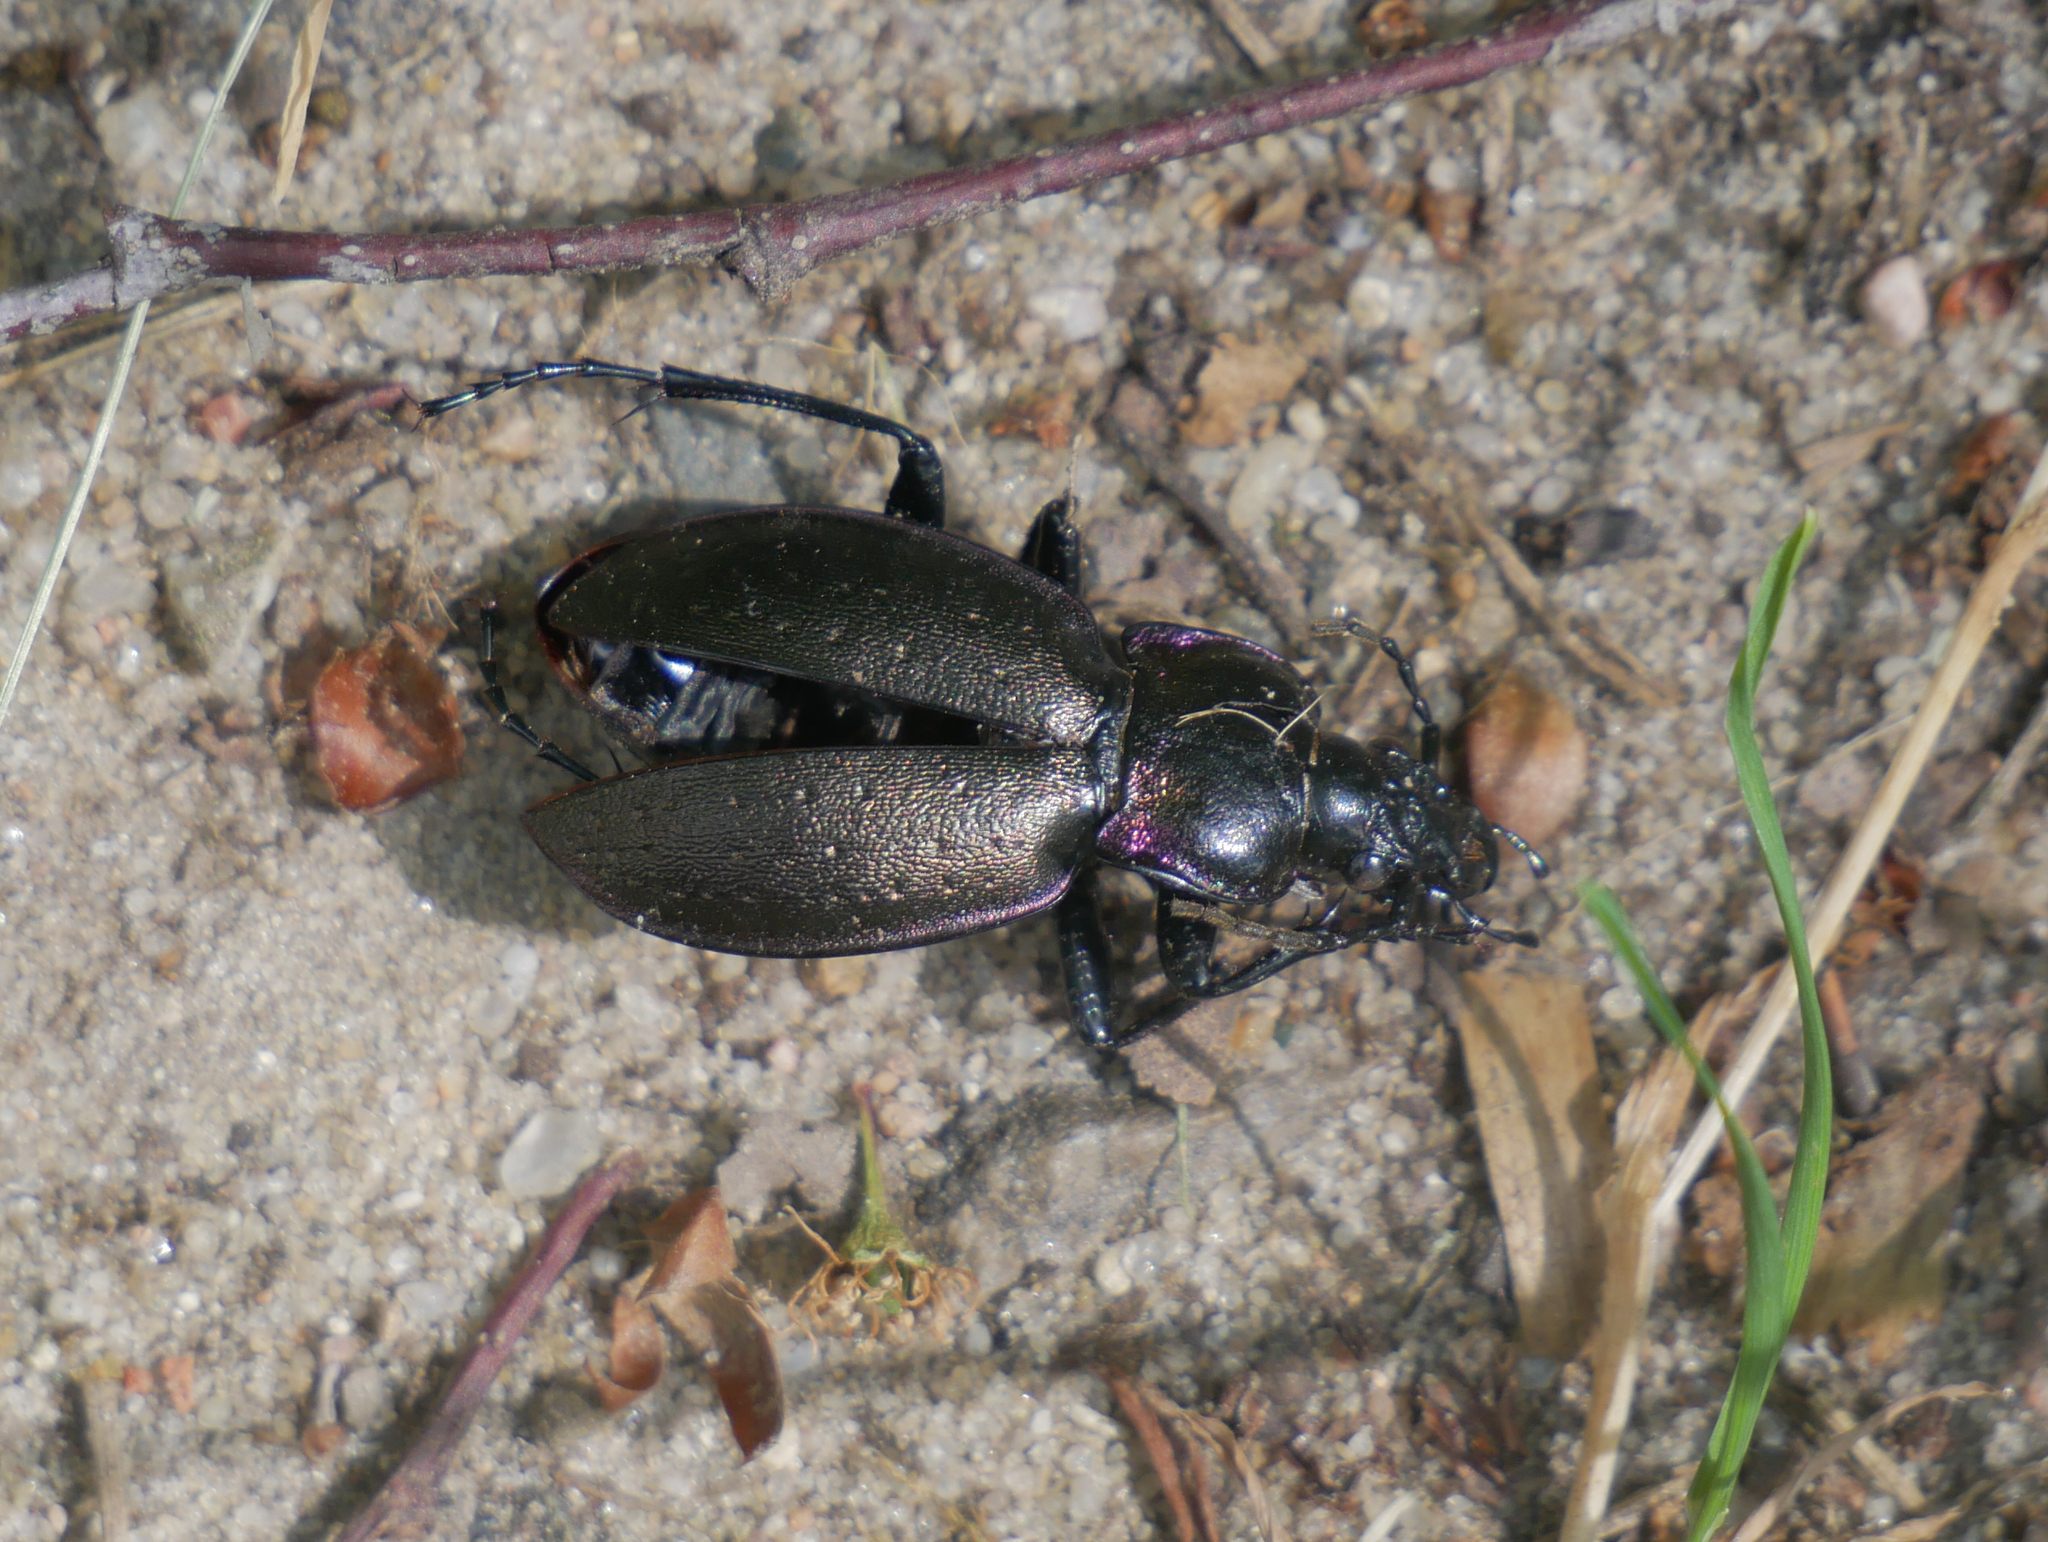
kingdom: Animalia
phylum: Arthropoda
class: Insecta
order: Coleoptera
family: Carabidae
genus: Carabus
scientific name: Carabus nemoralis
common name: European ground beetle
